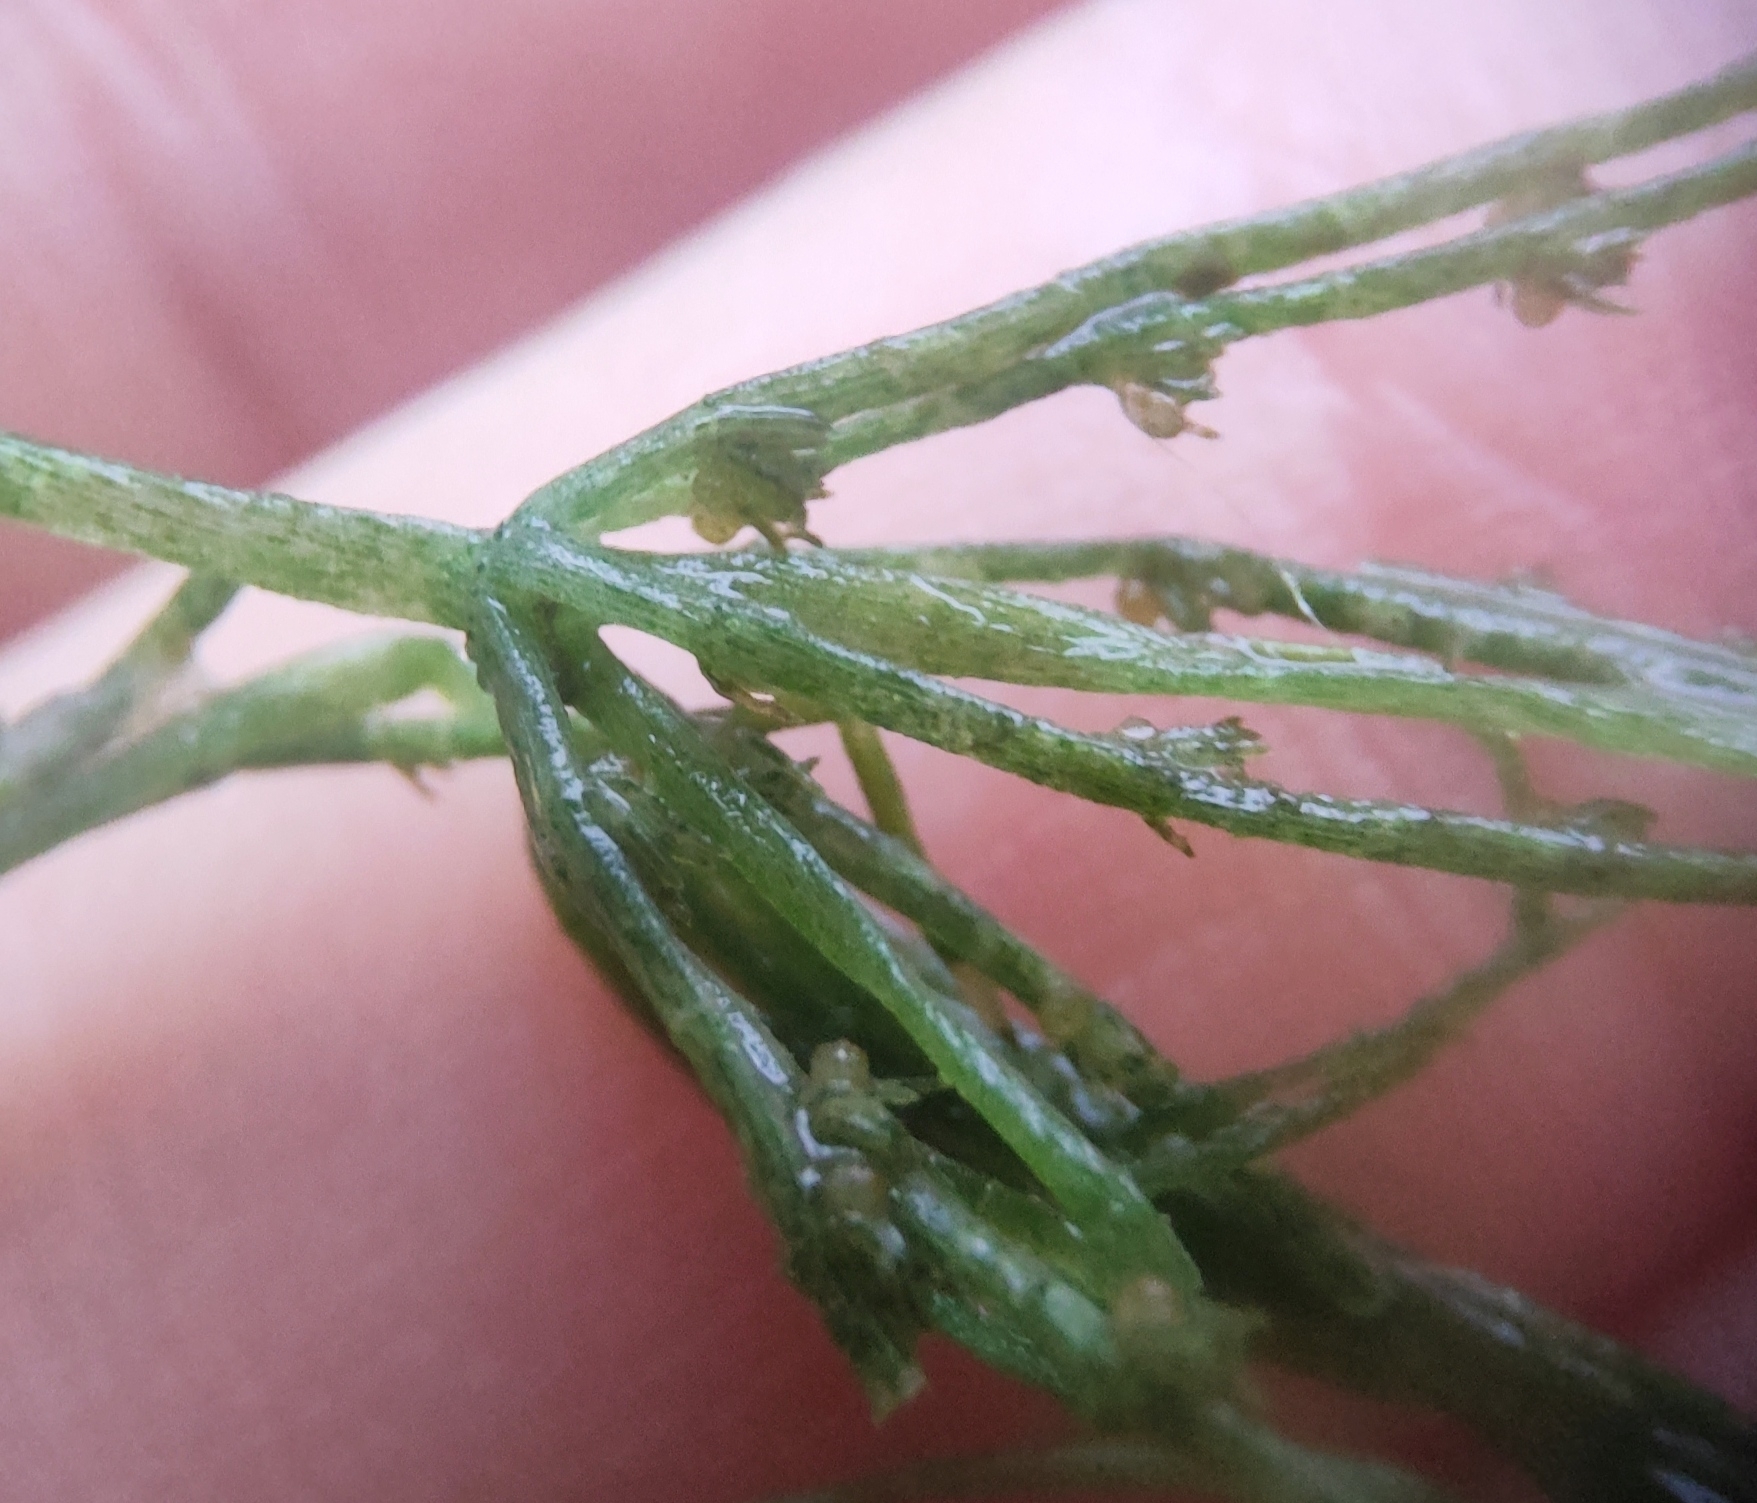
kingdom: Plantae
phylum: Charophyta
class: Charophyceae
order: Charales
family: Characeae
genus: Chara
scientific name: Chara globularis
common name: Fragile stonewort
